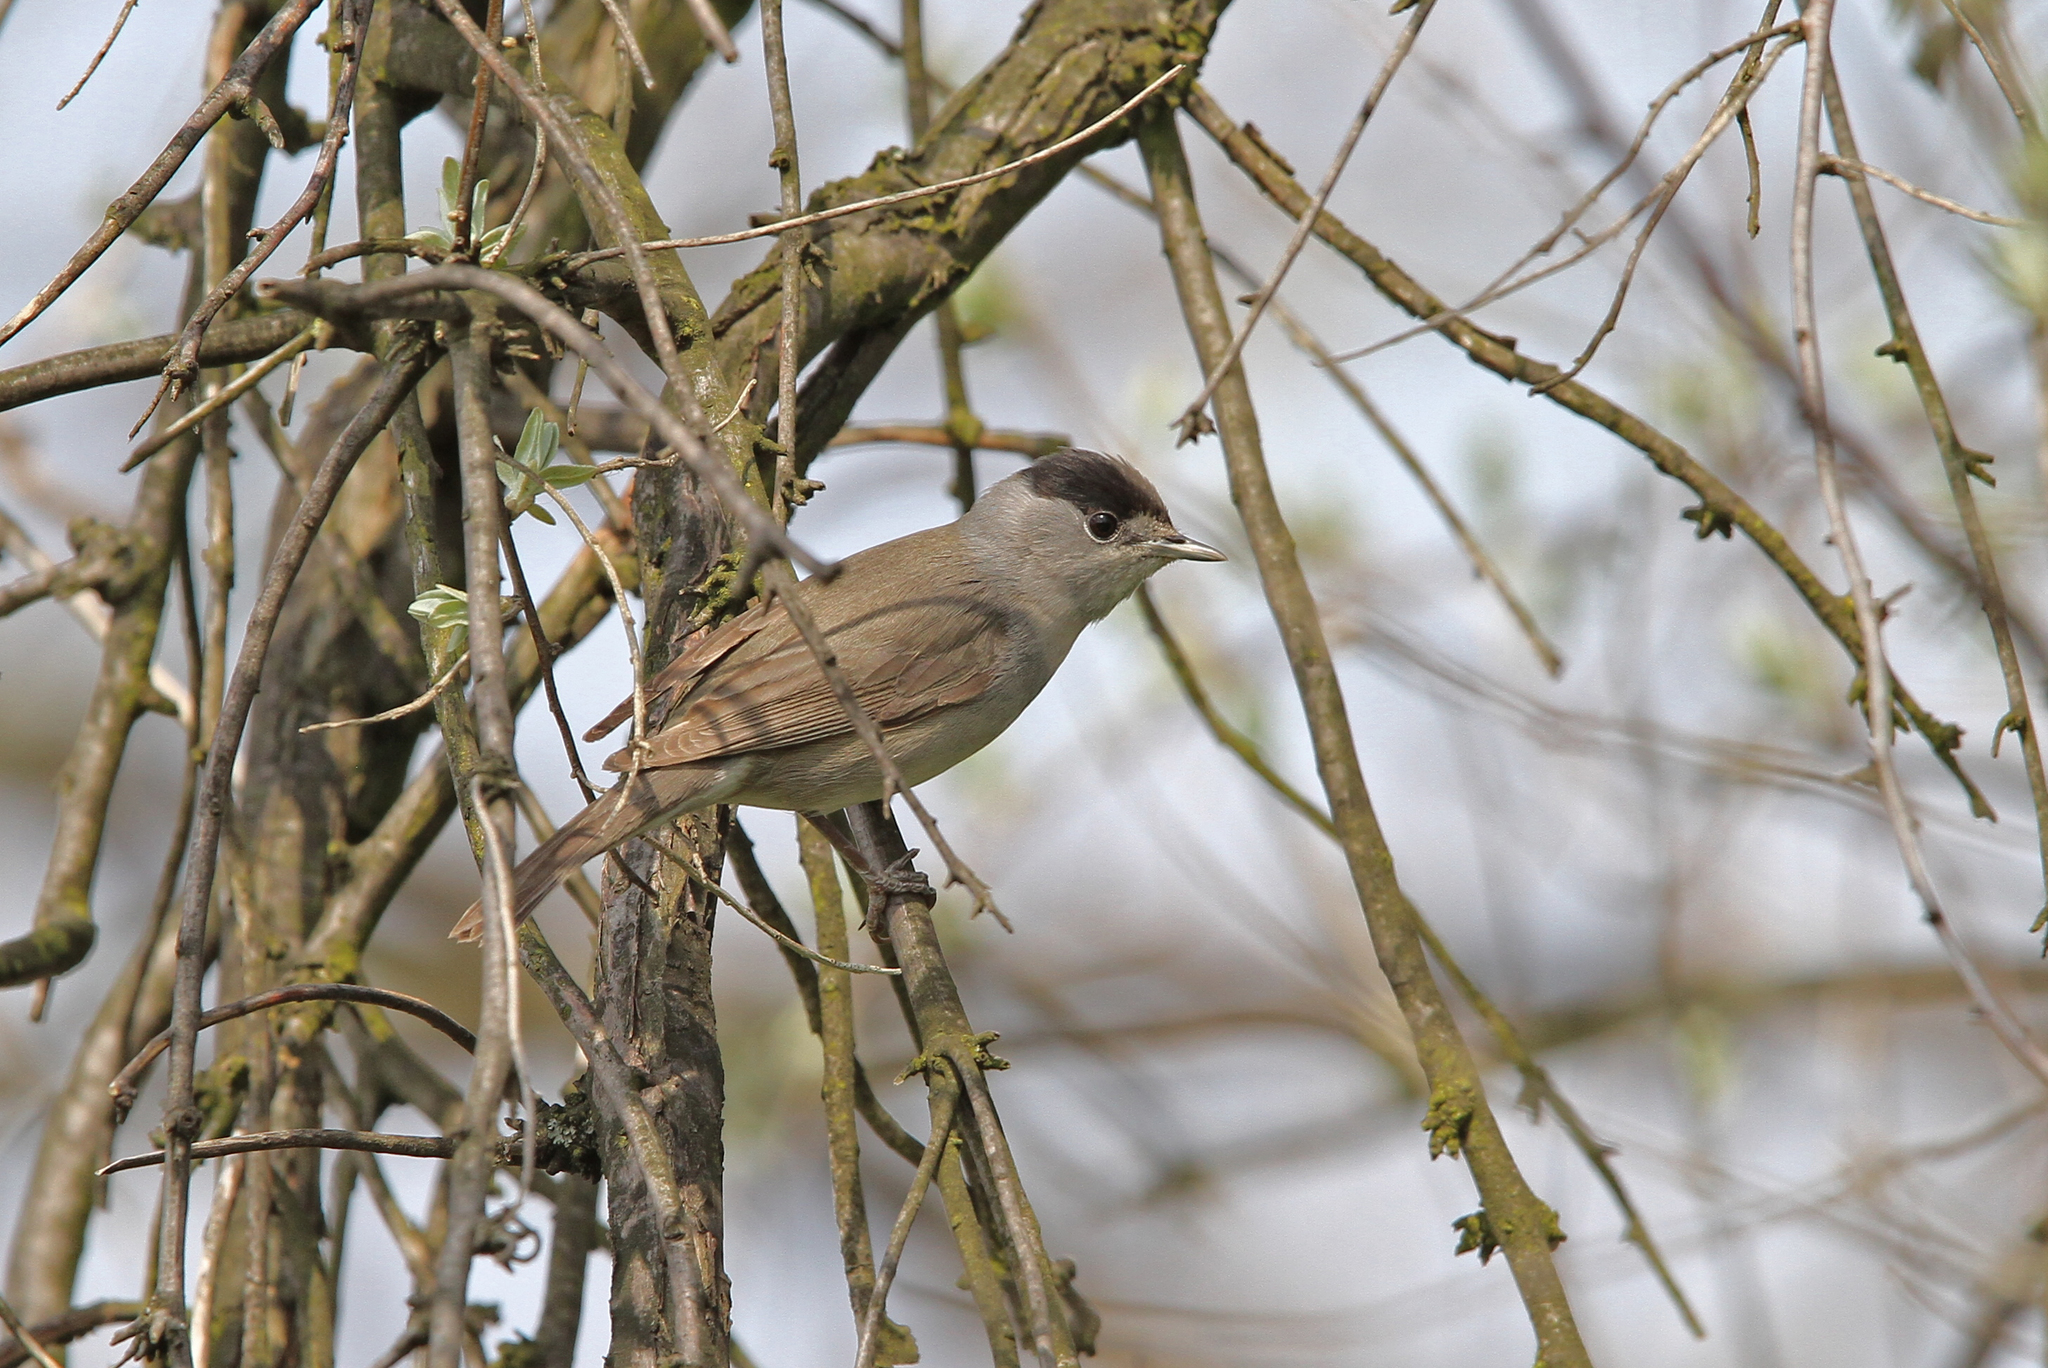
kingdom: Animalia
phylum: Chordata
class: Aves
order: Passeriformes
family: Sylviidae
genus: Sylvia
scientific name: Sylvia atricapilla
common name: Eurasian blackcap
